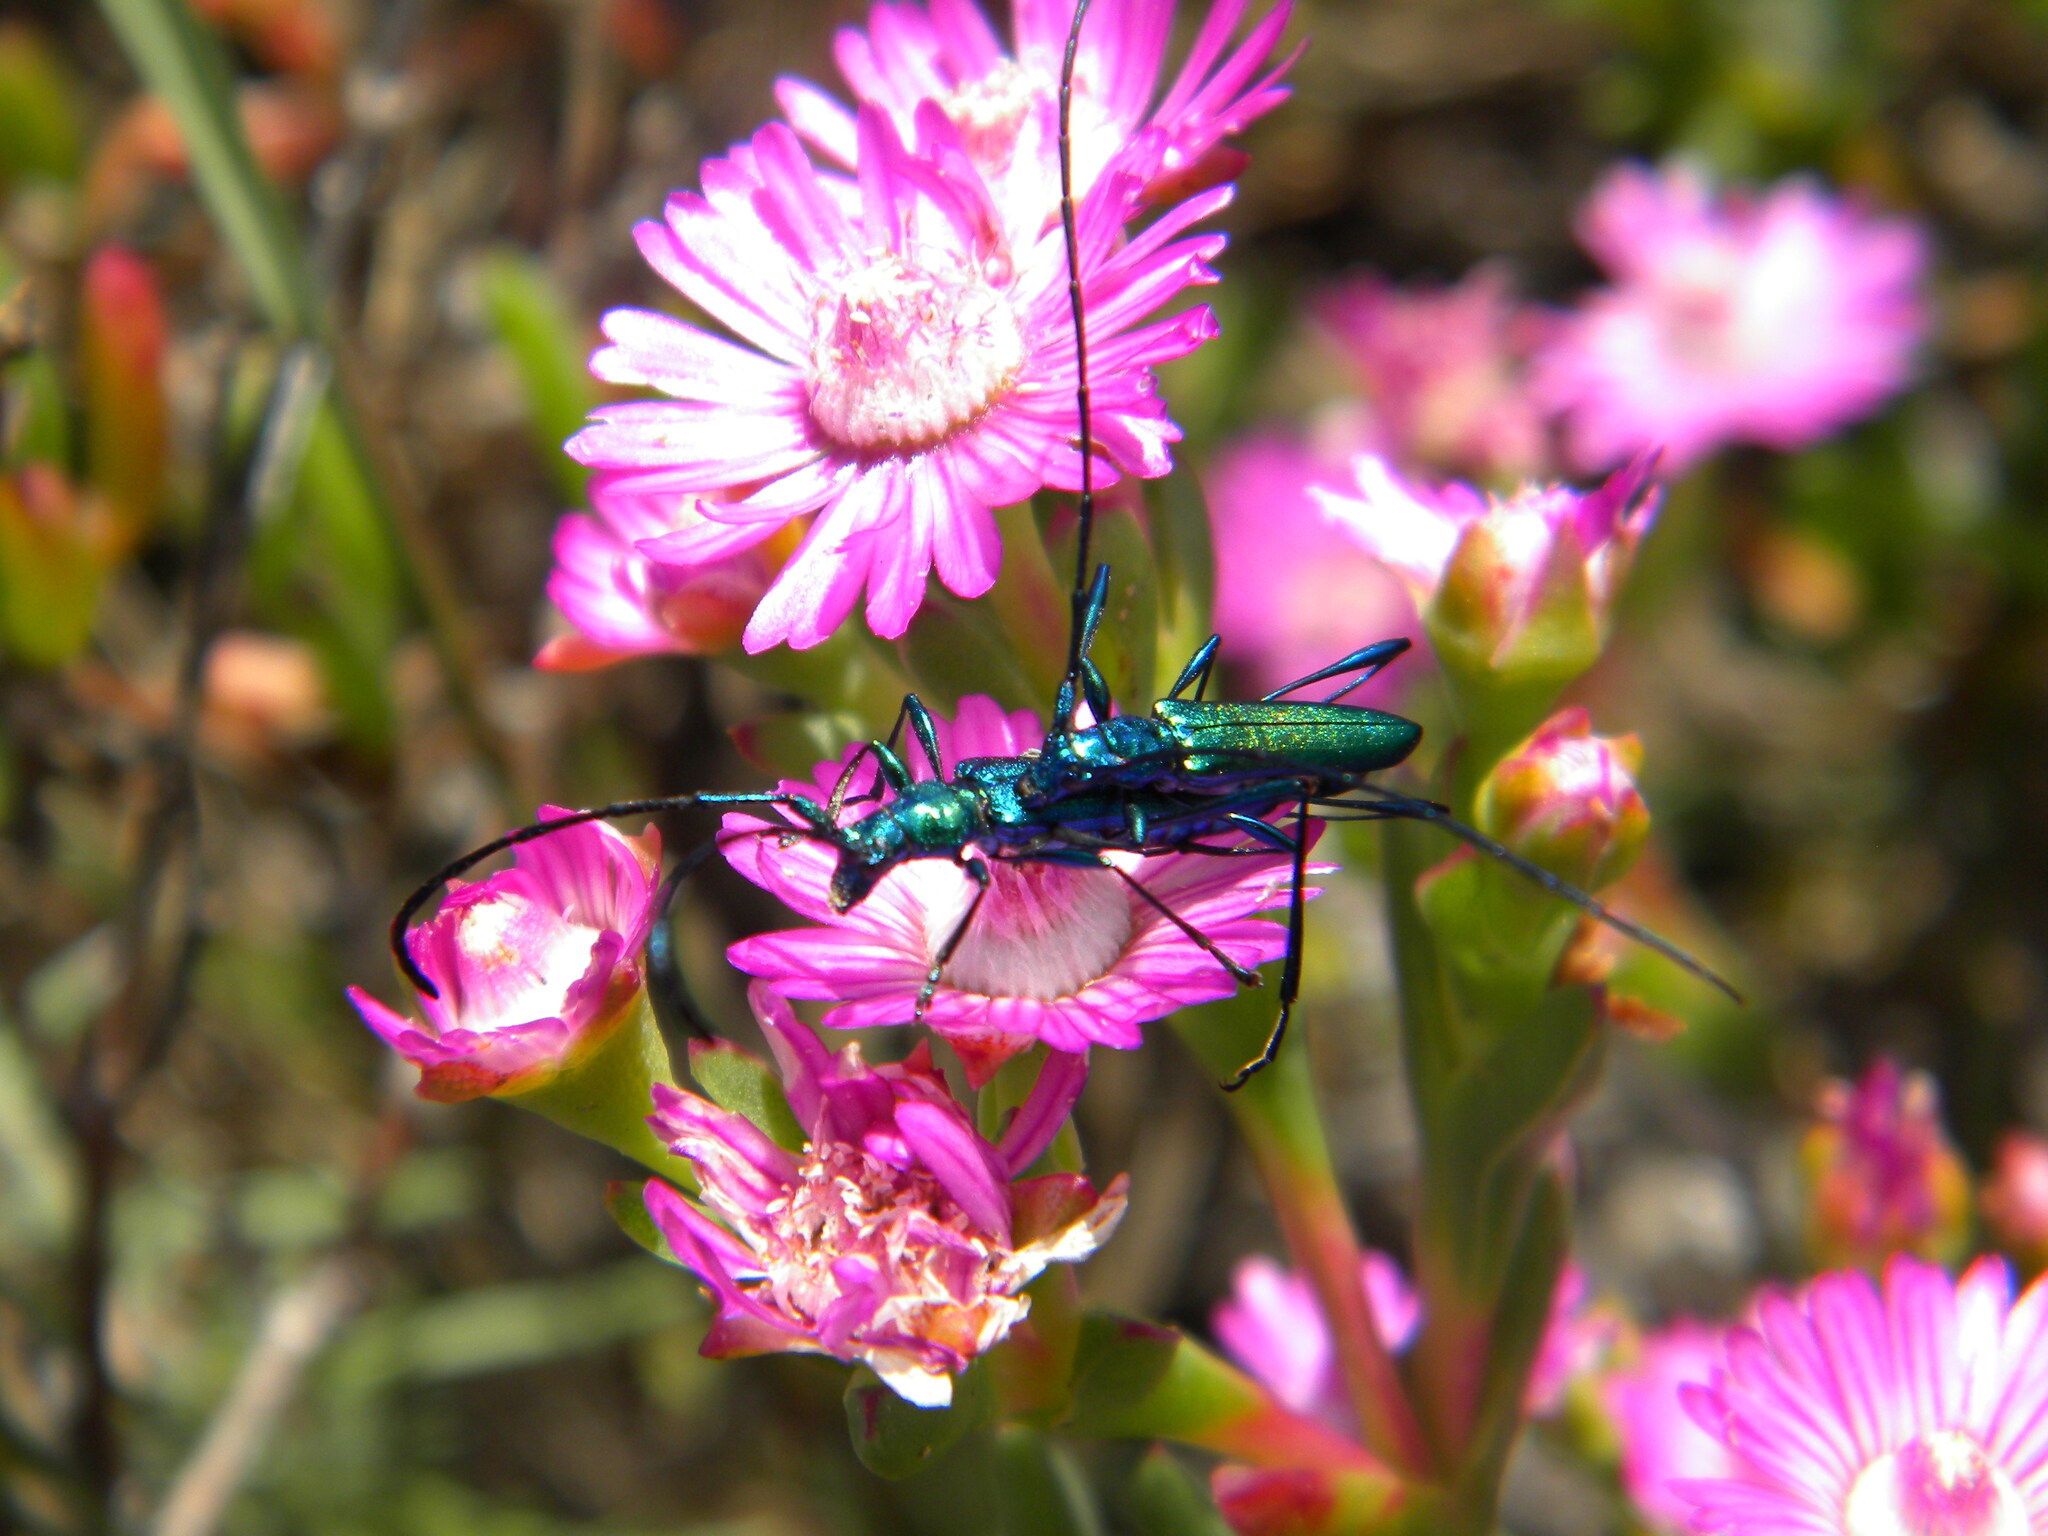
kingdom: Animalia
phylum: Arthropoda
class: Insecta
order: Coleoptera
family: Cerambycidae
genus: Promeces
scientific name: Promeces longipes
